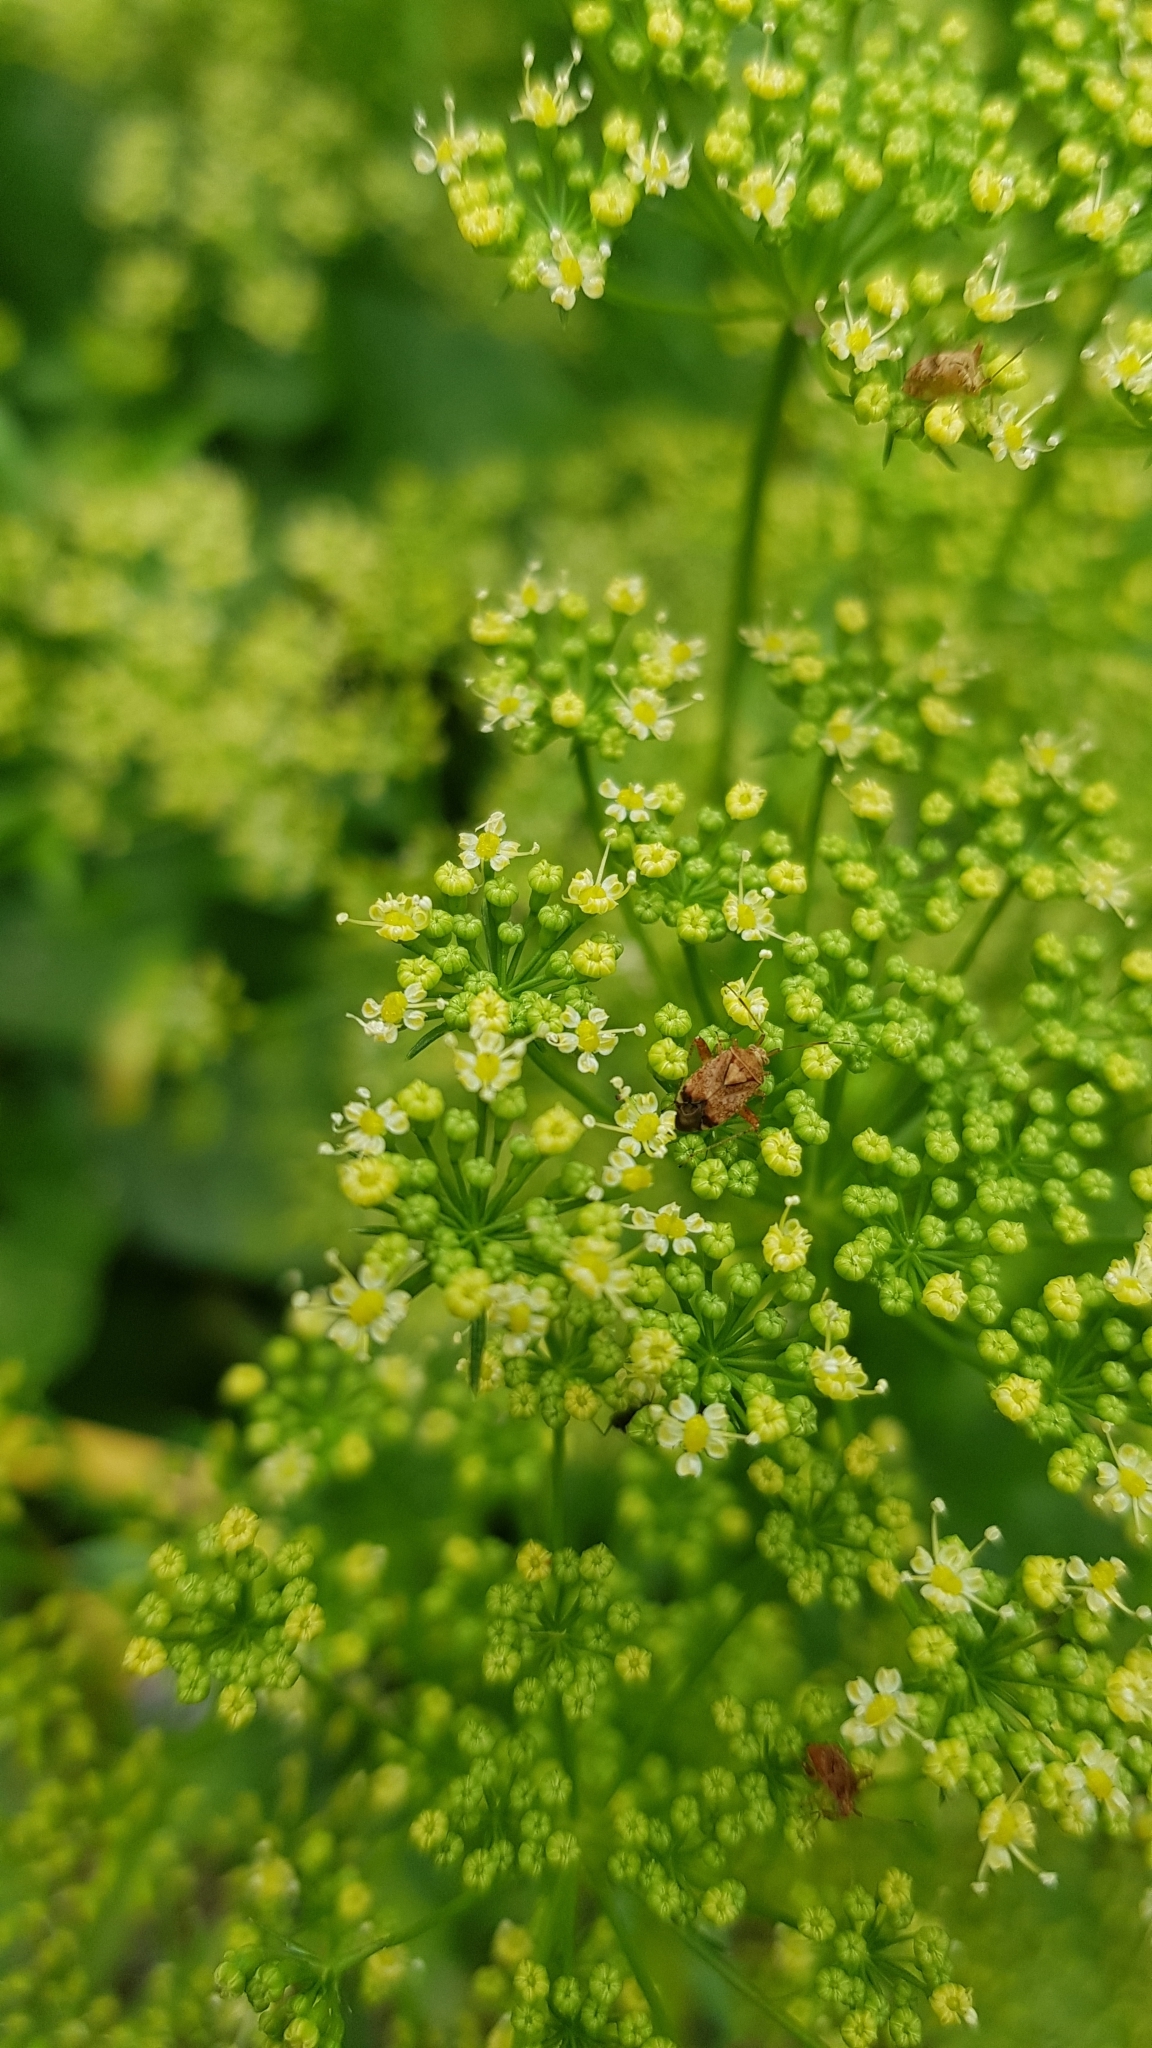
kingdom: Animalia
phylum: Arthropoda
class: Insecta
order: Hemiptera
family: Miridae
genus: Sidnia
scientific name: Sidnia kinbergi
